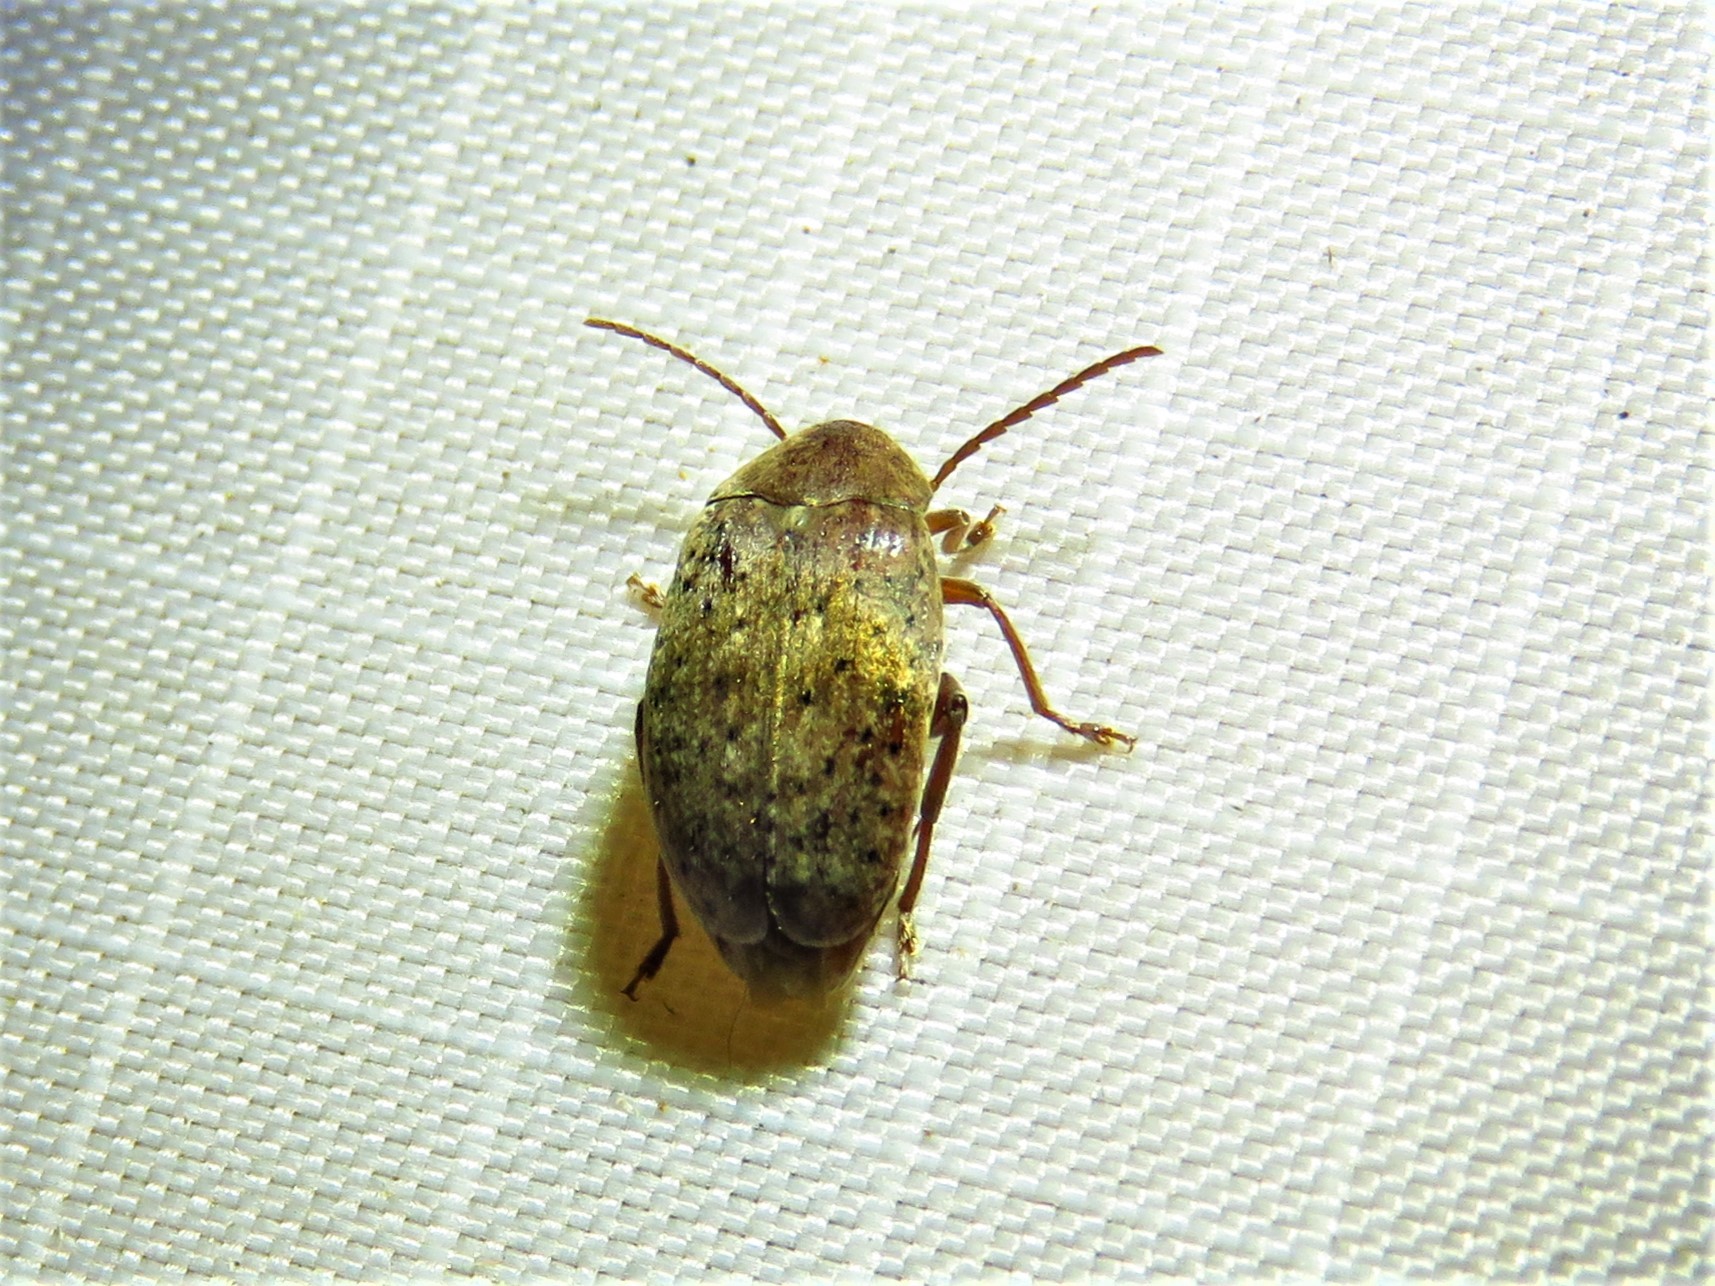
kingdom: Animalia
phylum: Arthropoda
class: Insecta
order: Coleoptera
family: Chrysomelidae
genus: Amblycerus
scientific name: Amblycerus robiniae
